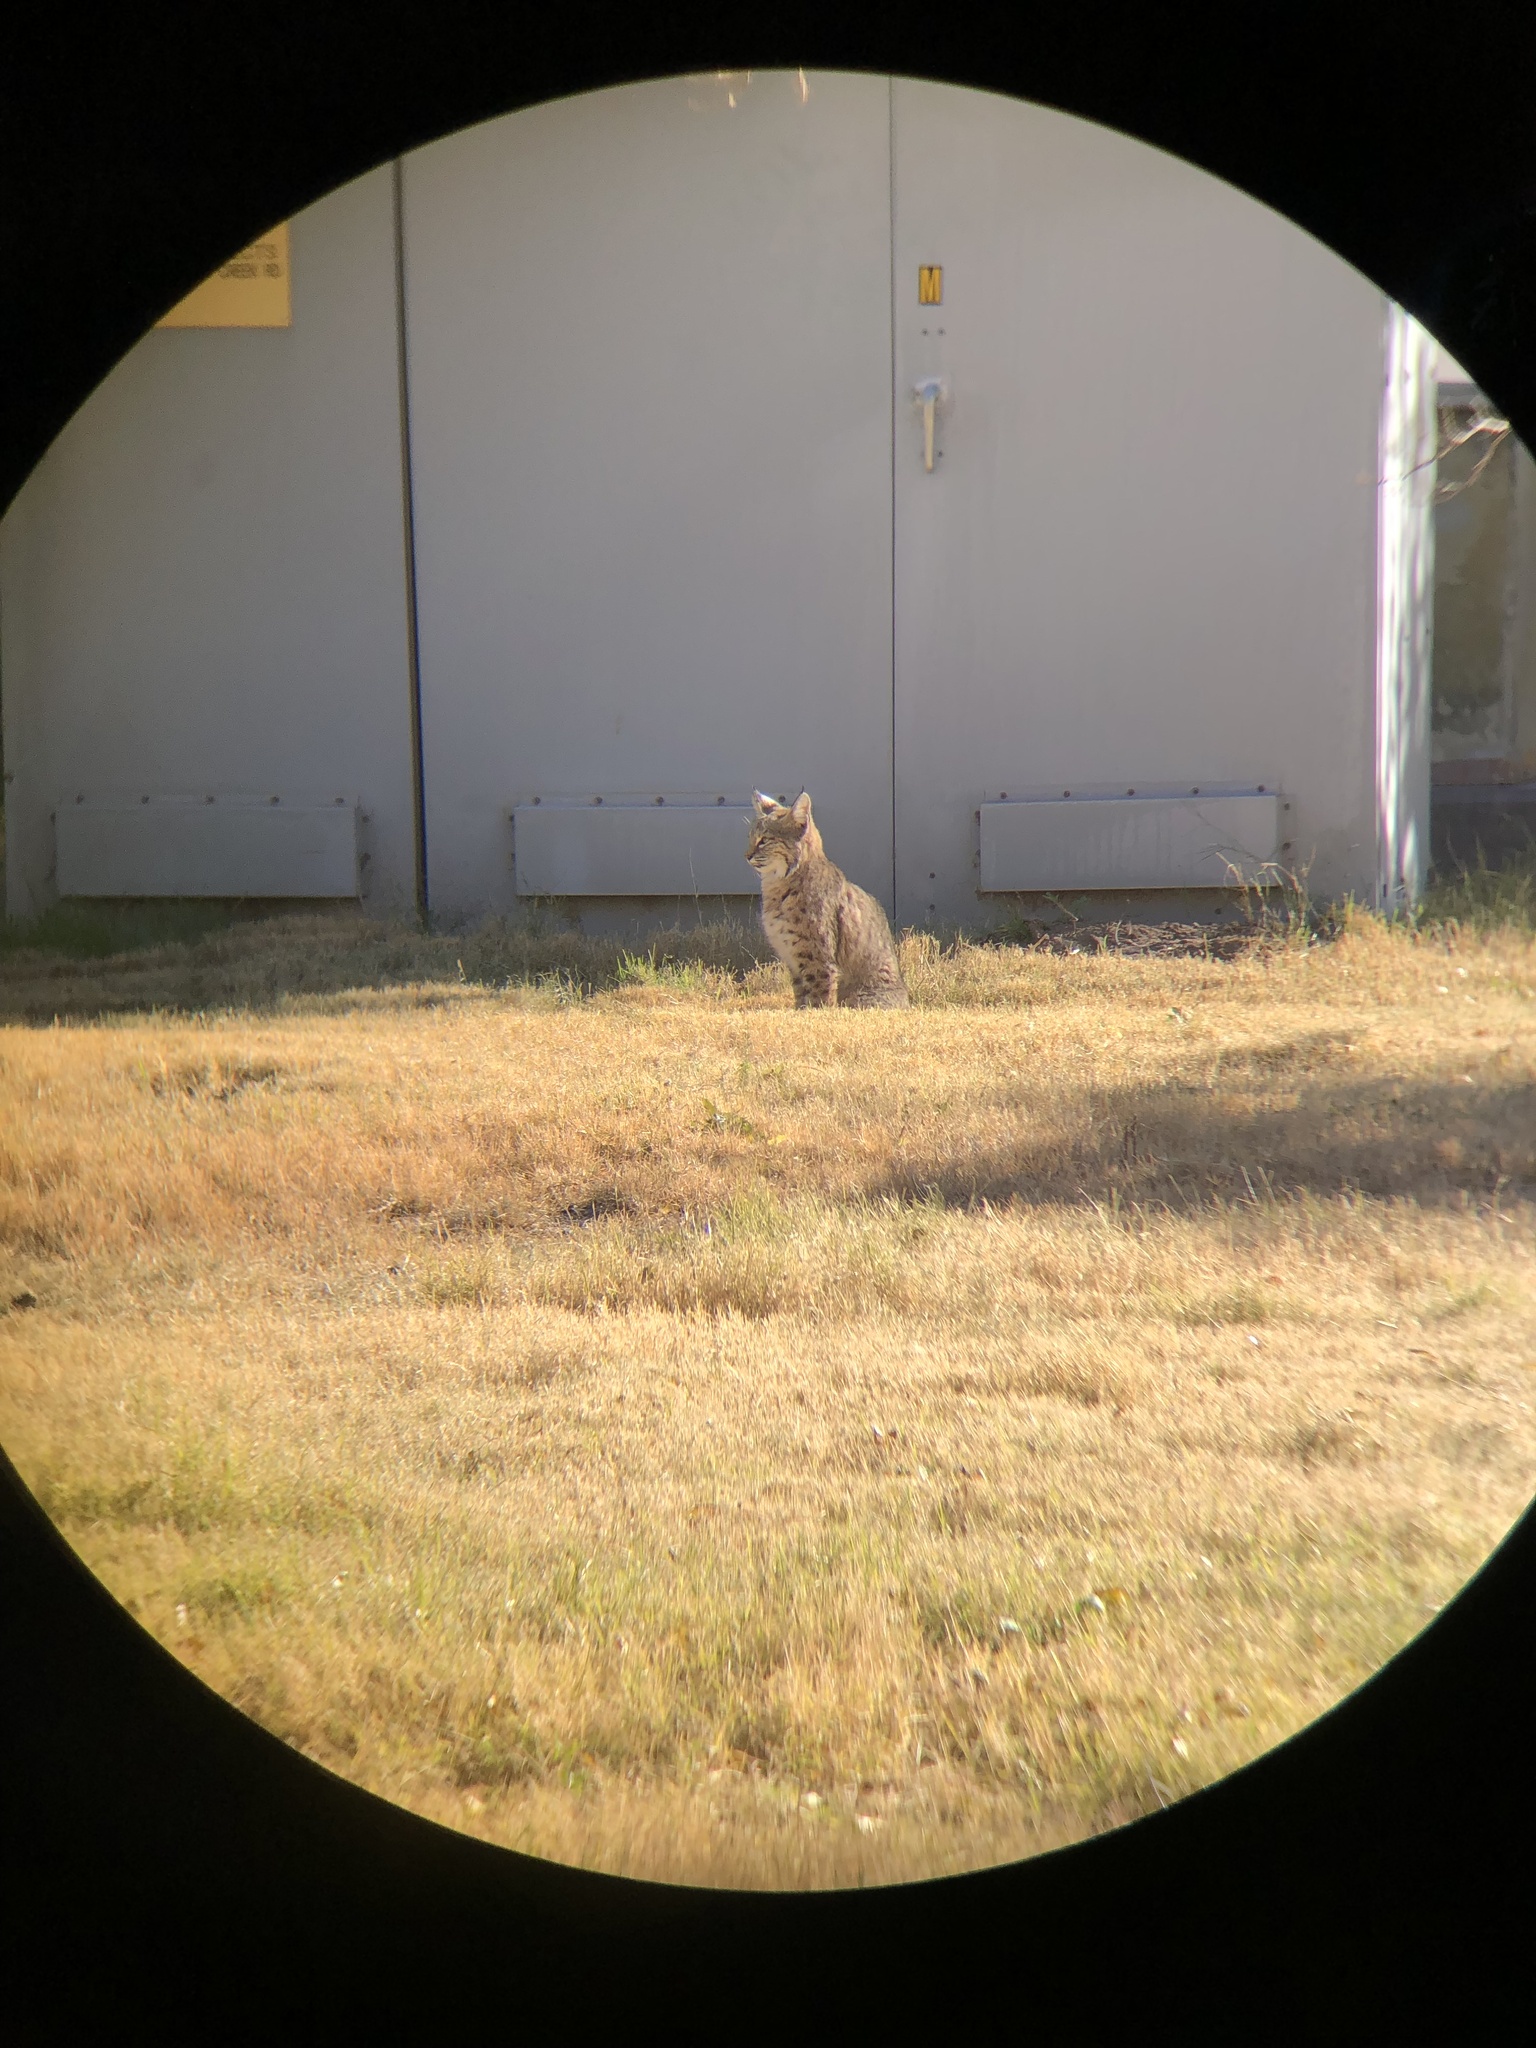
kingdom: Animalia
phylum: Chordata
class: Mammalia
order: Carnivora
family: Felidae
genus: Lynx
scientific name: Lynx rufus
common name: Bobcat
